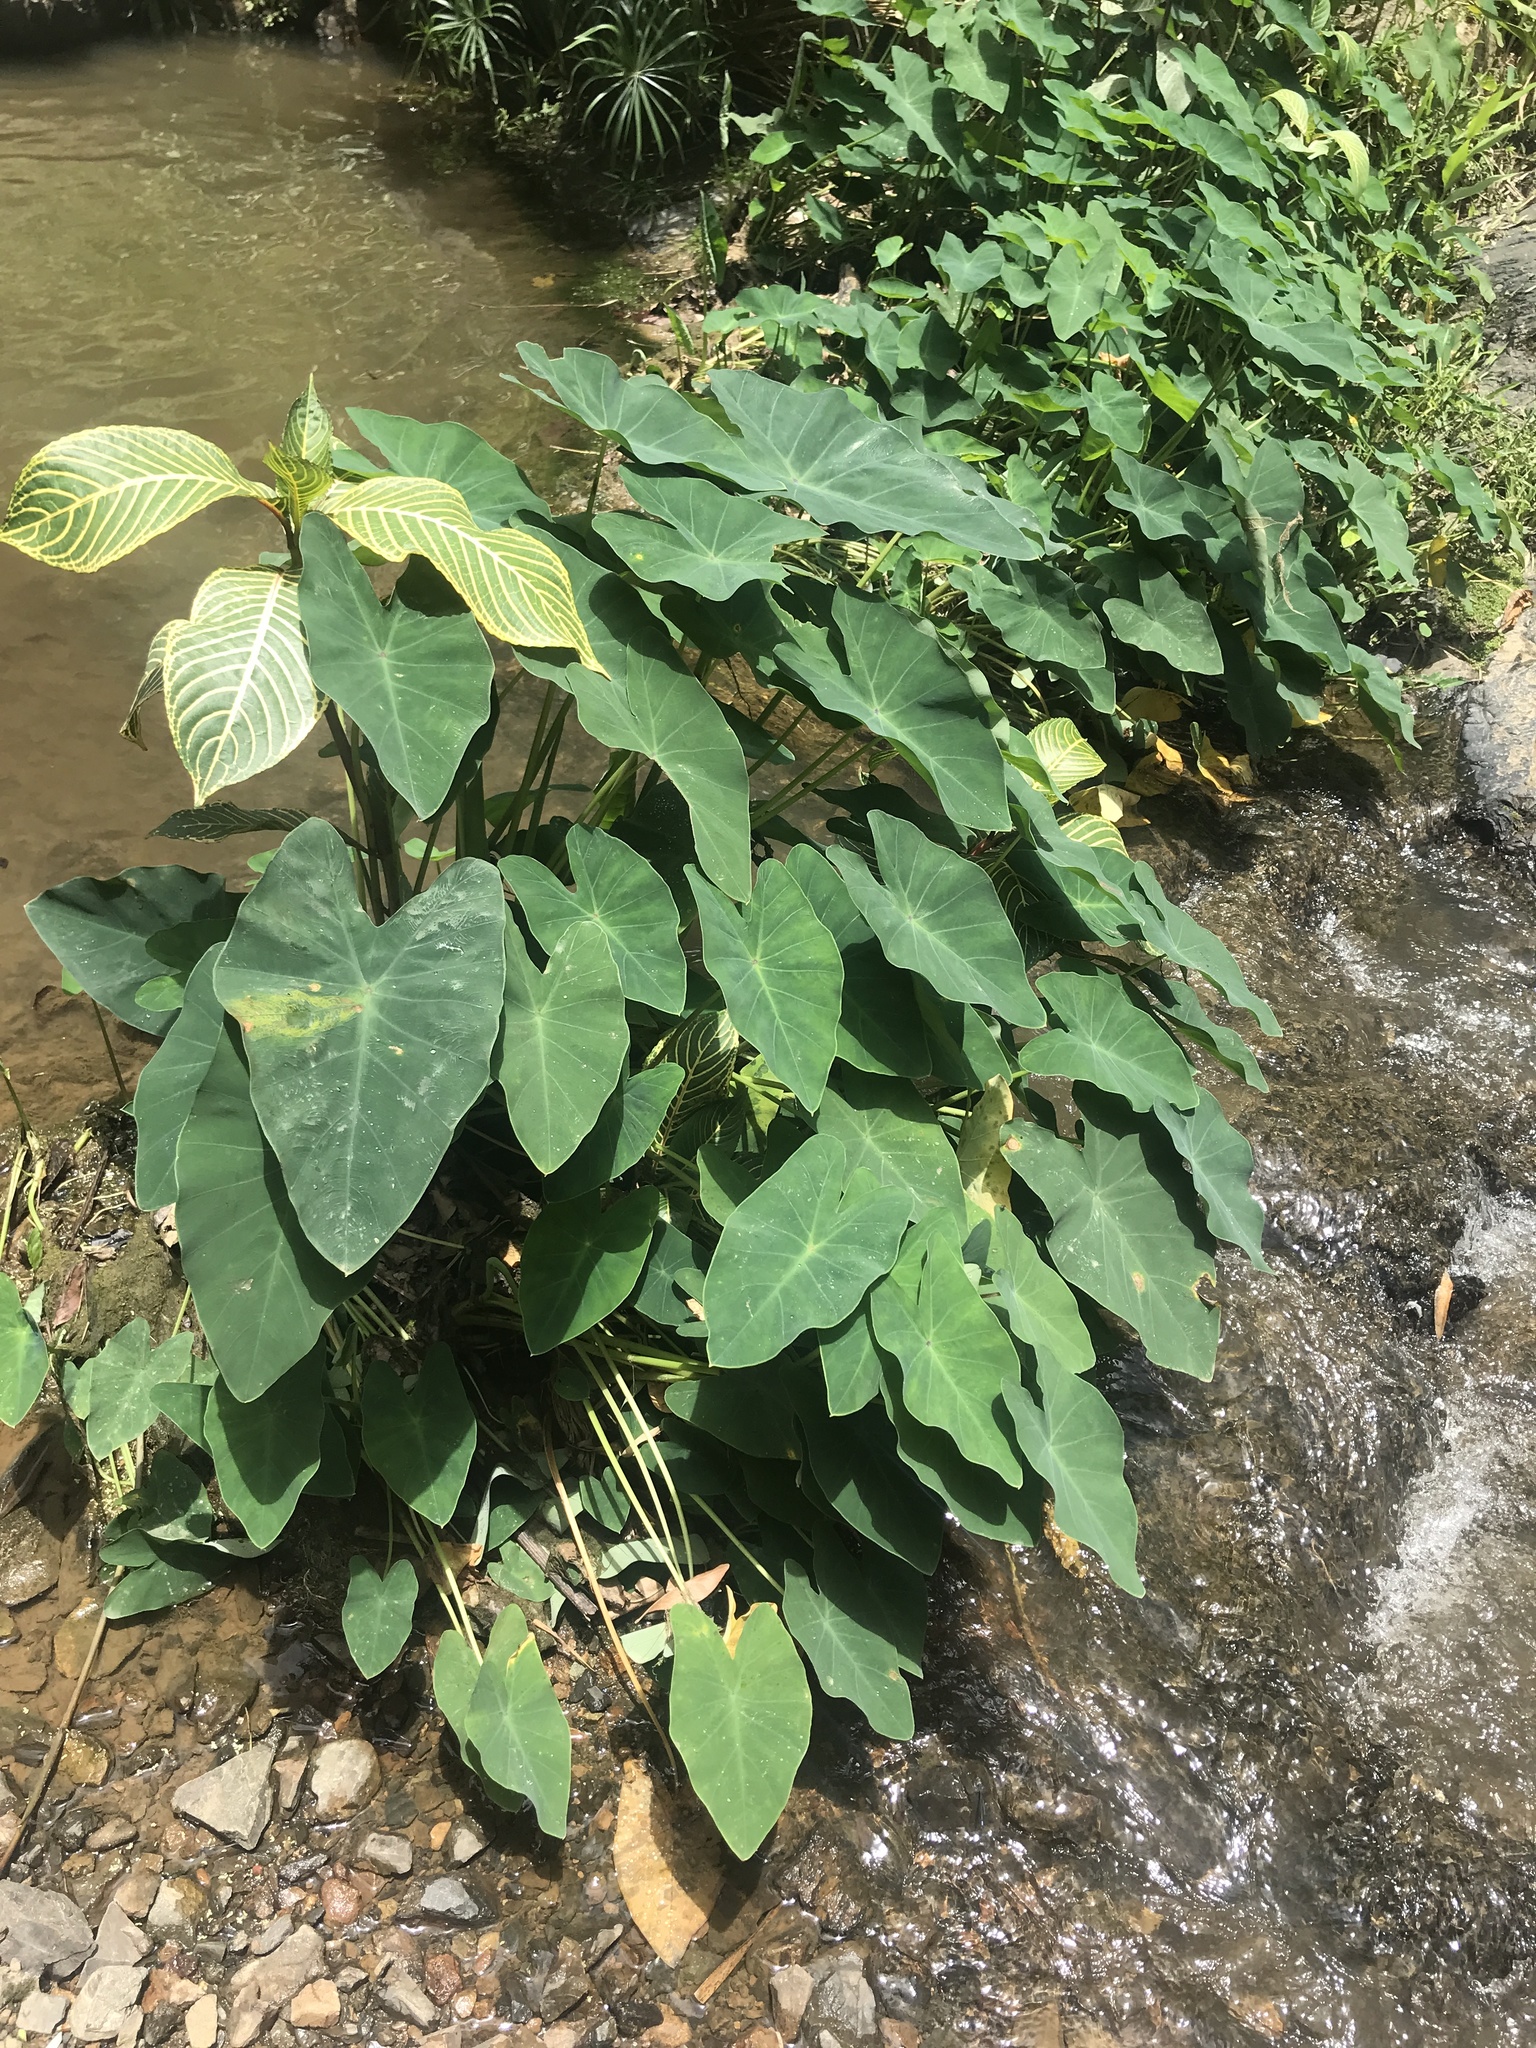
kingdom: Plantae
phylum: Tracheophyta
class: Liliopsida
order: Alismatales
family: Araceae
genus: Colocasia
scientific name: Colocasia esculenta
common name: Taro
